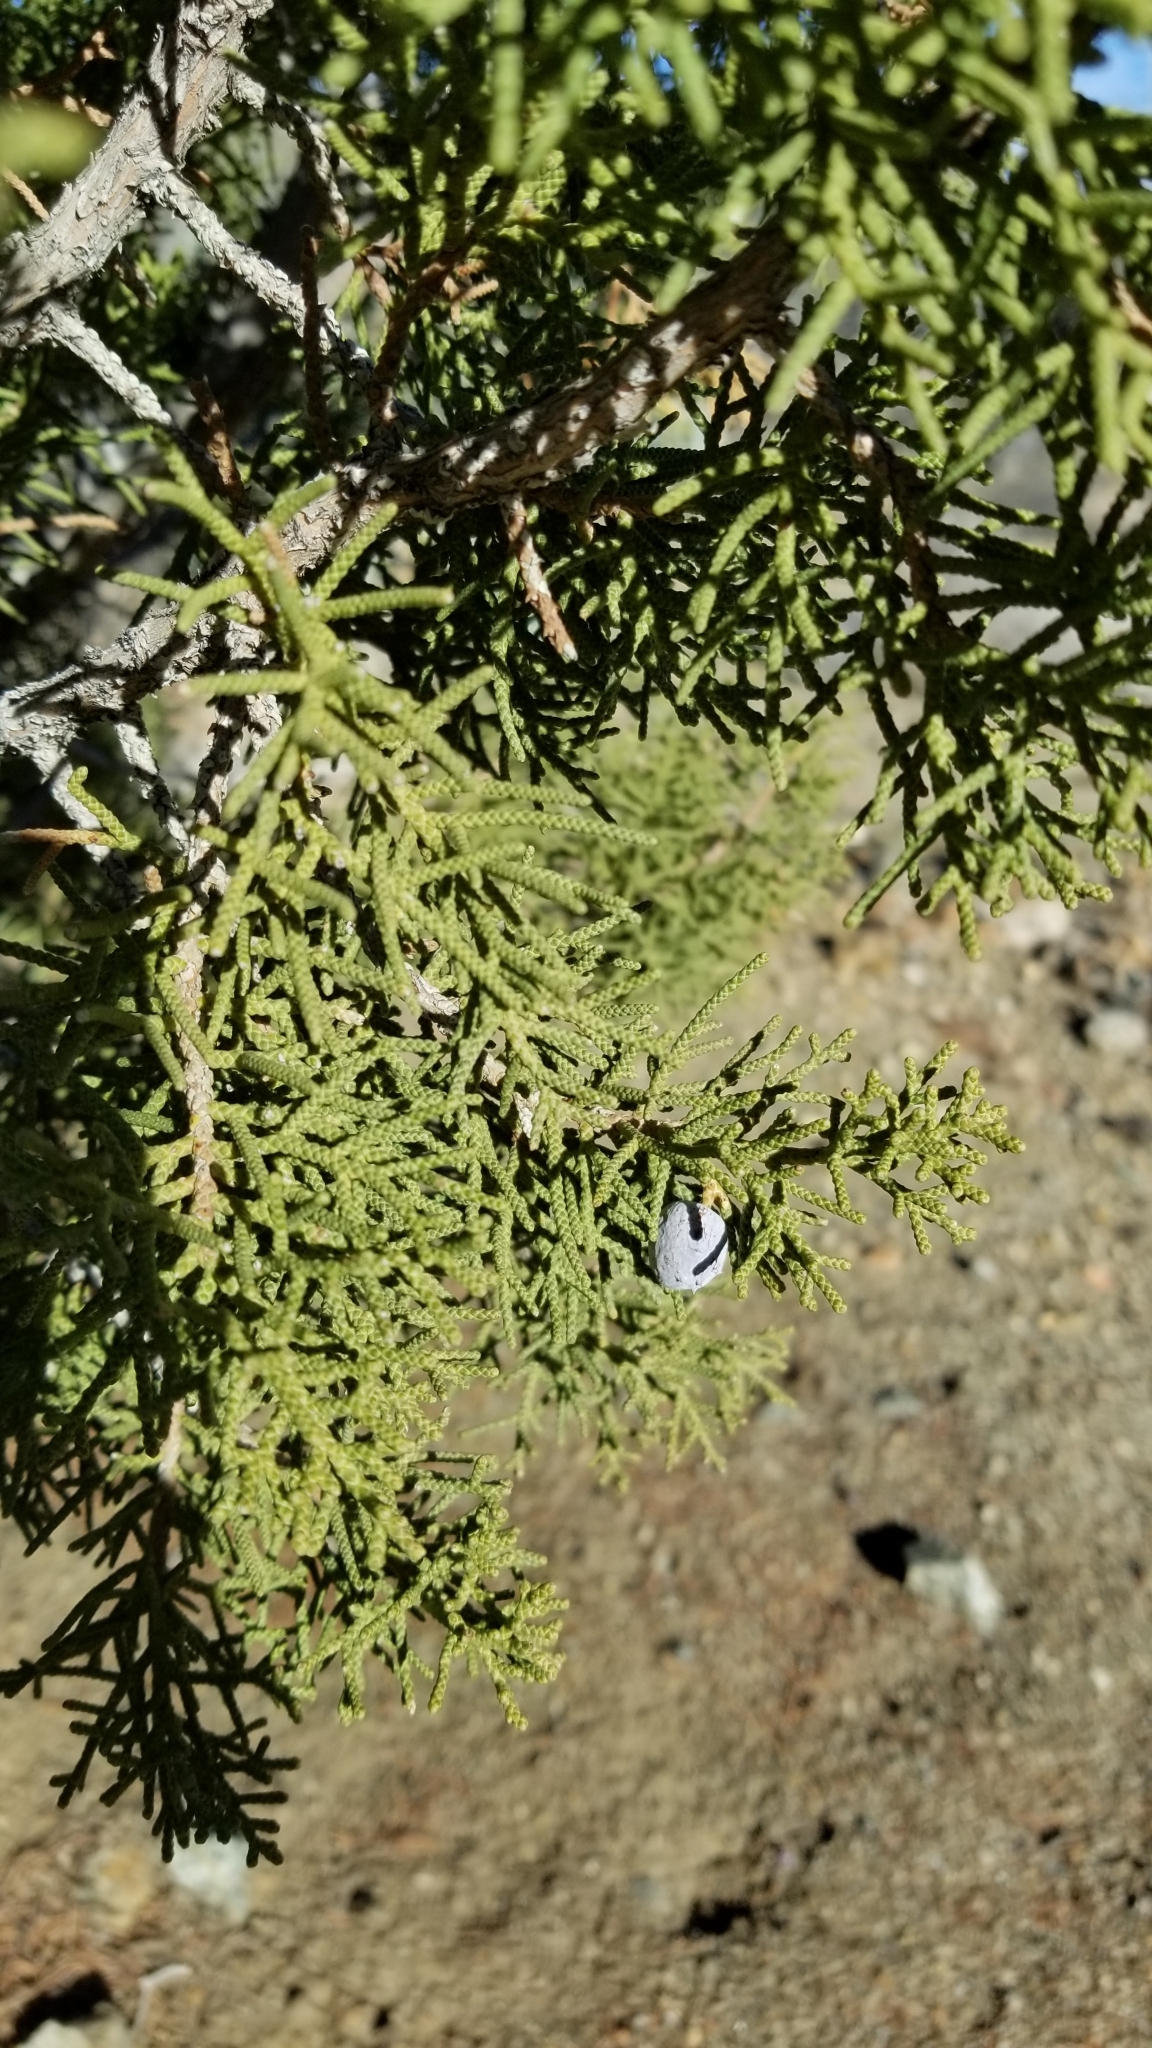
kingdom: Plantae
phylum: Tracheophyta
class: Pinopsida
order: Pinales
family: Cupressaceae
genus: Juniperus
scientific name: Juniperus californica
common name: California juniper
